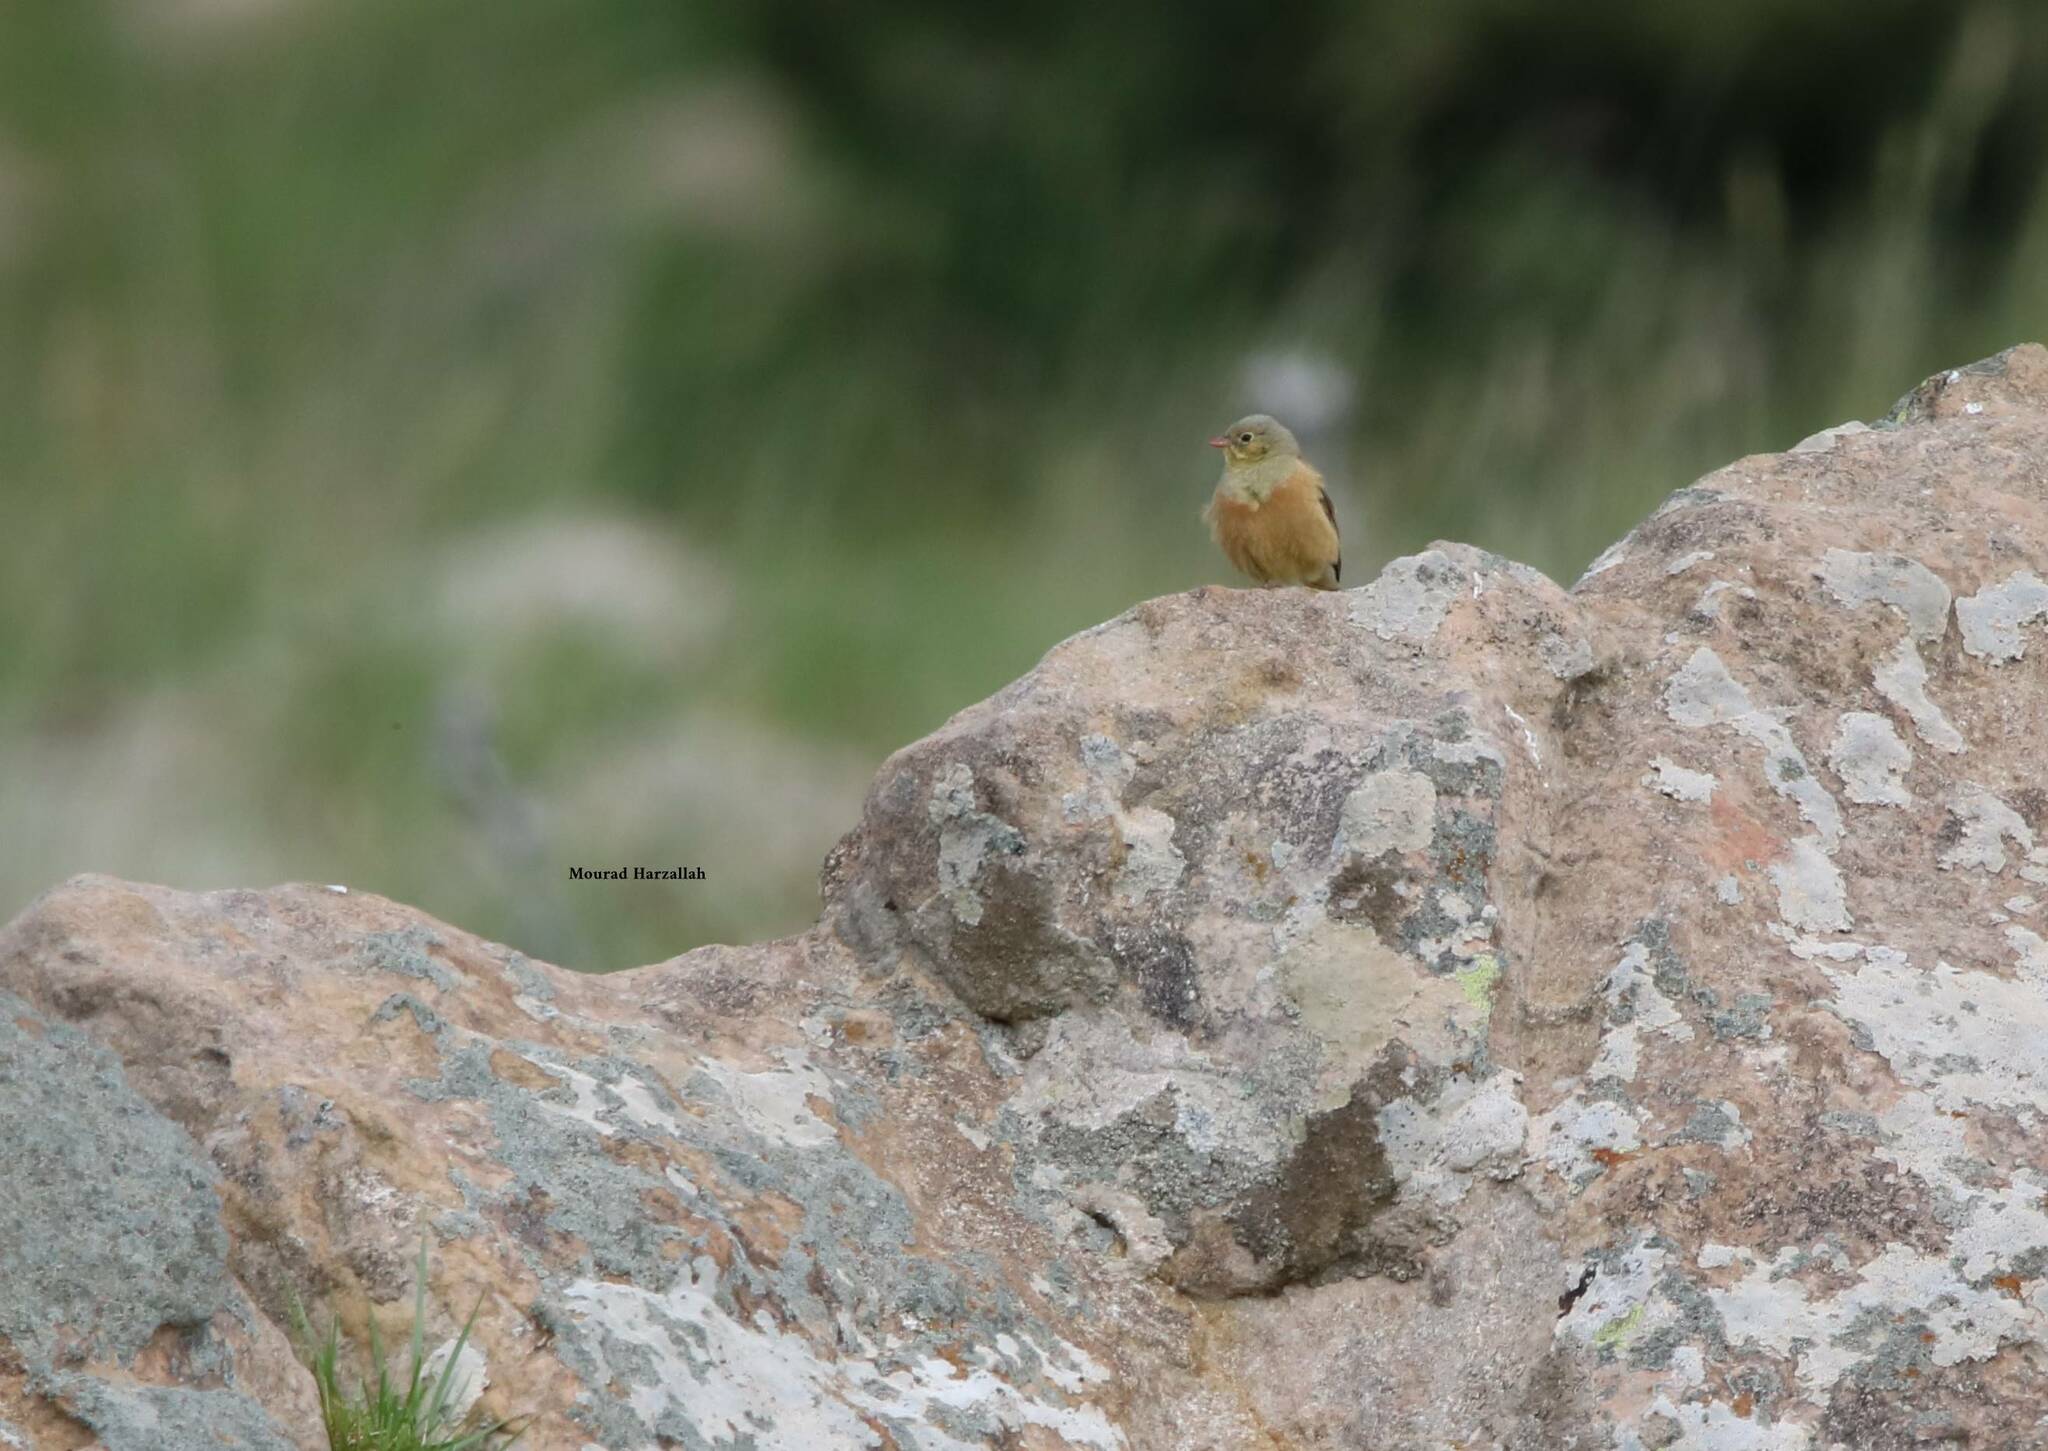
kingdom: Animalia
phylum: Chordata
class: Aves
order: Passeriformes
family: Emberizidae
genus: Emberiza
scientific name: Emberiza hortulana
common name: Ortolan bunting
